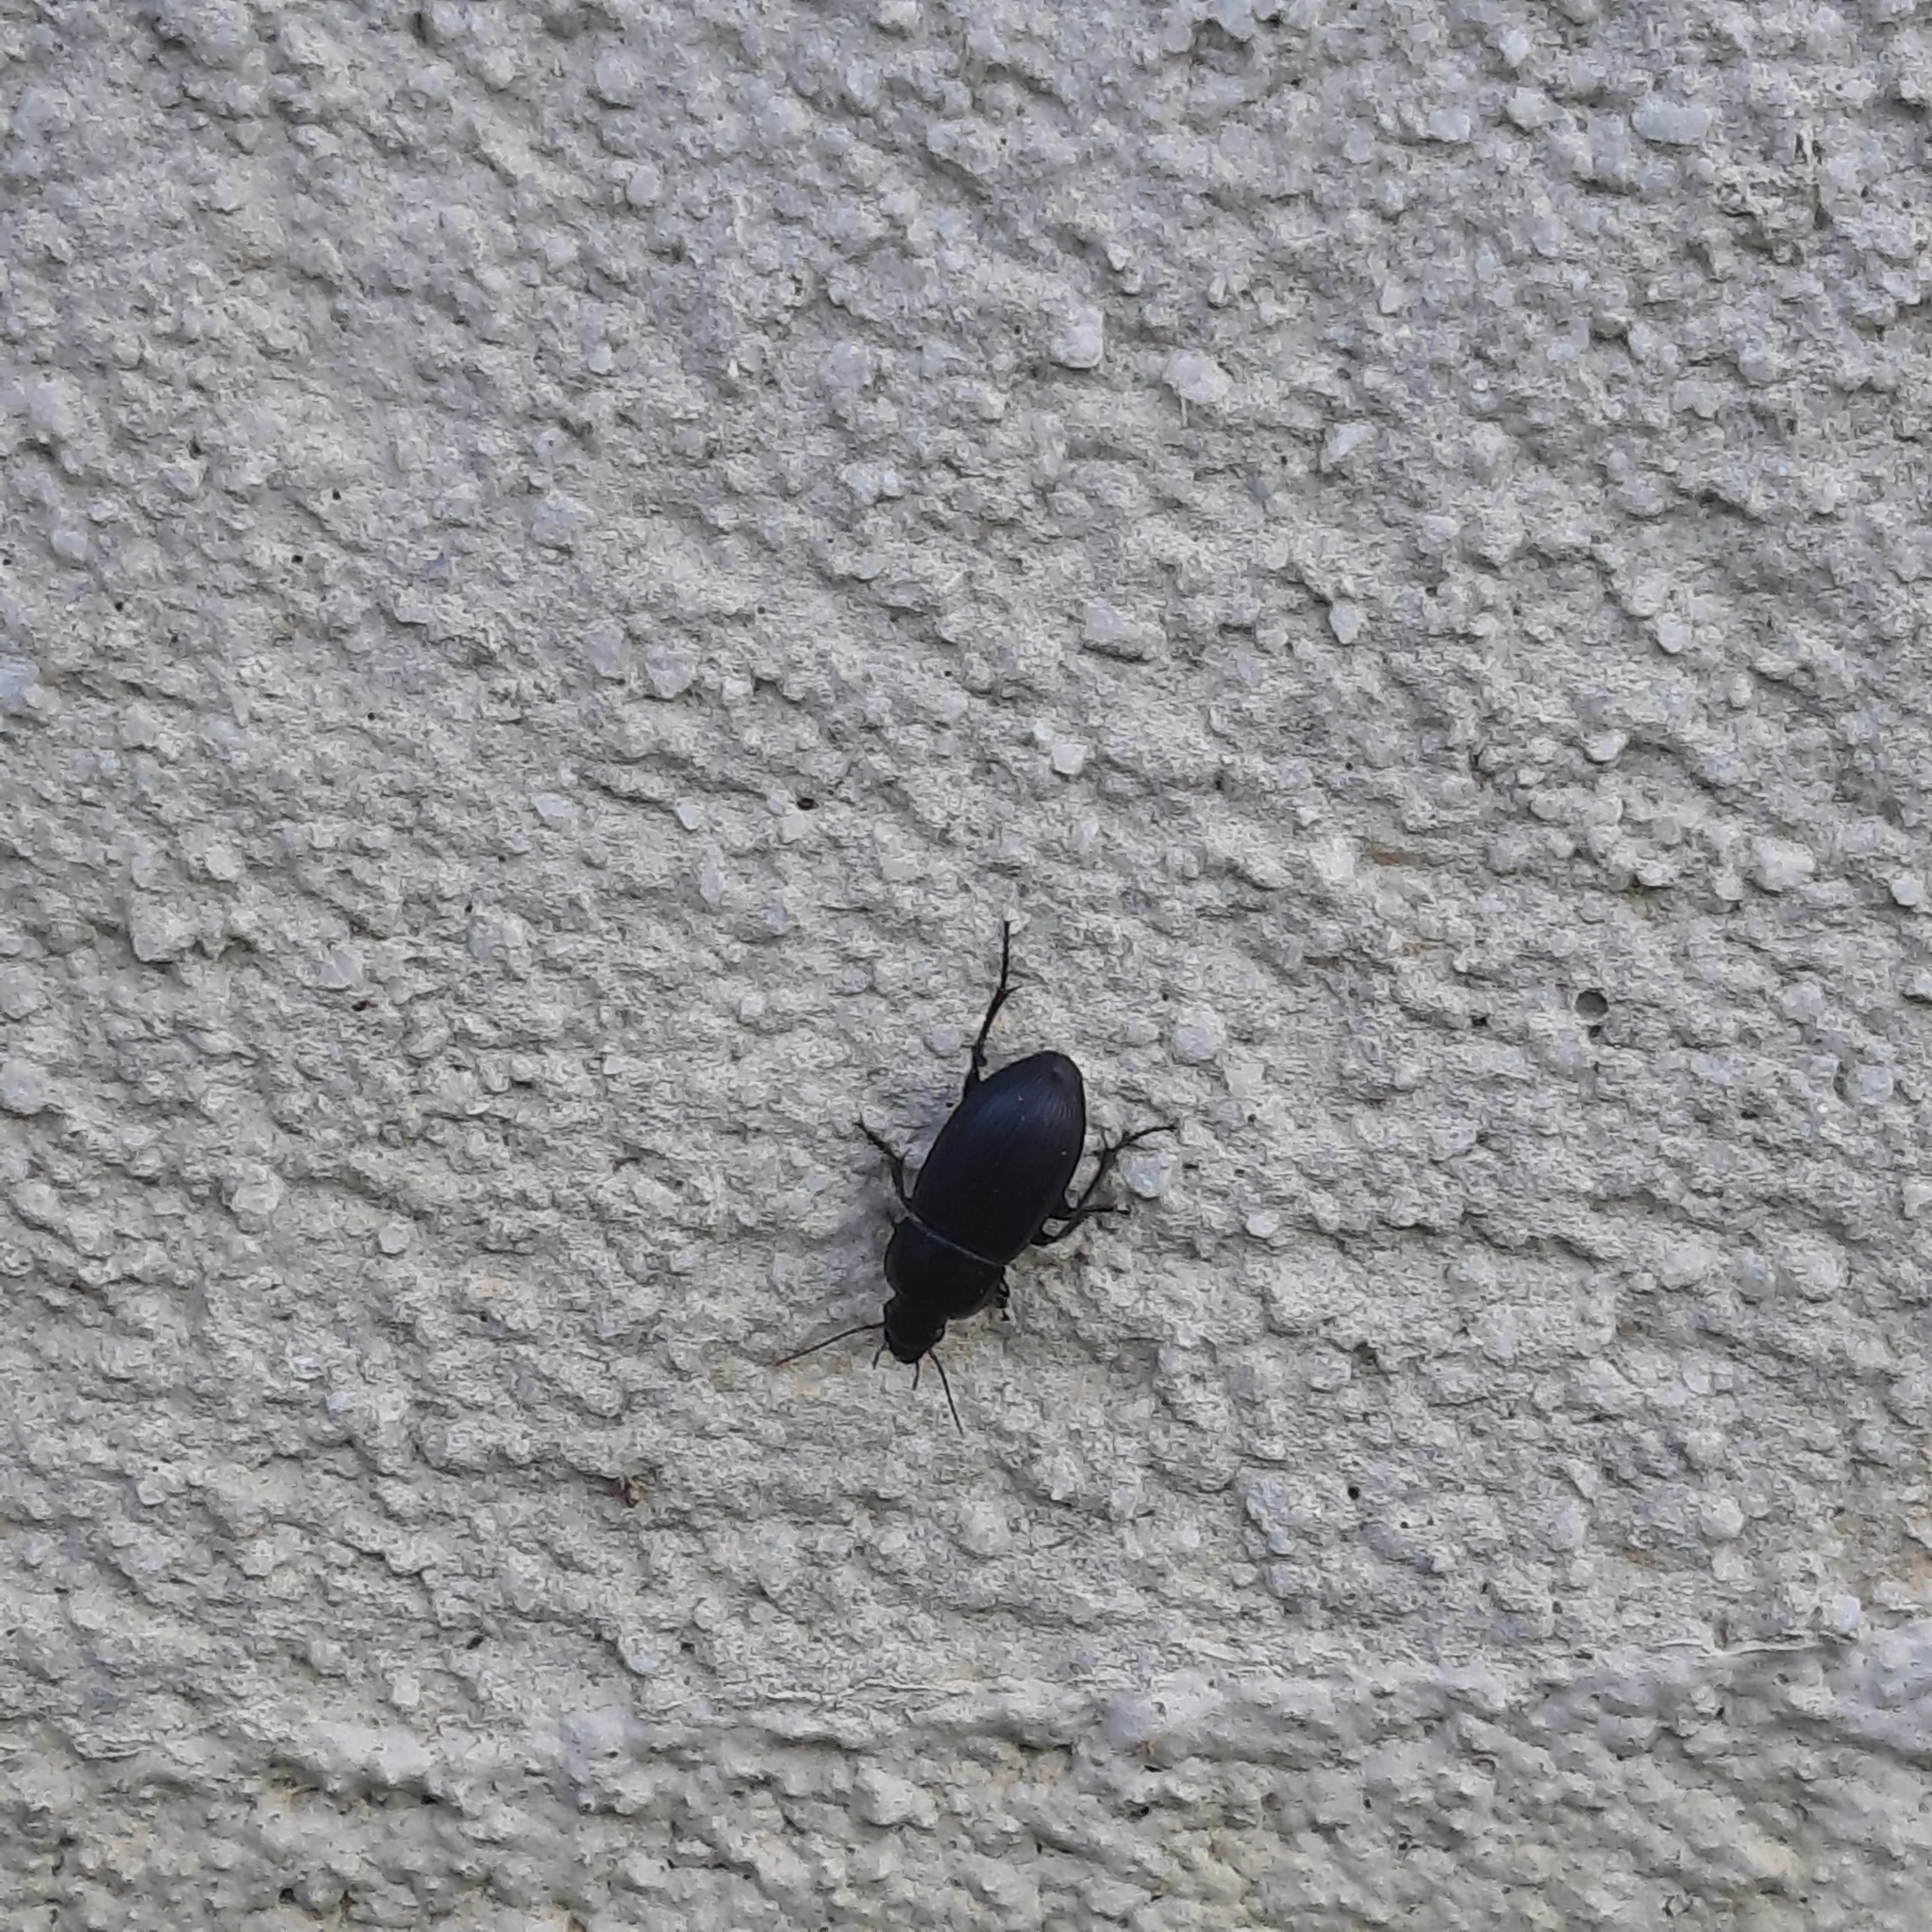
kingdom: Animalia
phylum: Arthropoda
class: Insecta
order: Coleoptera
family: Carabidae
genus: Harpalus
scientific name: Harpalus
